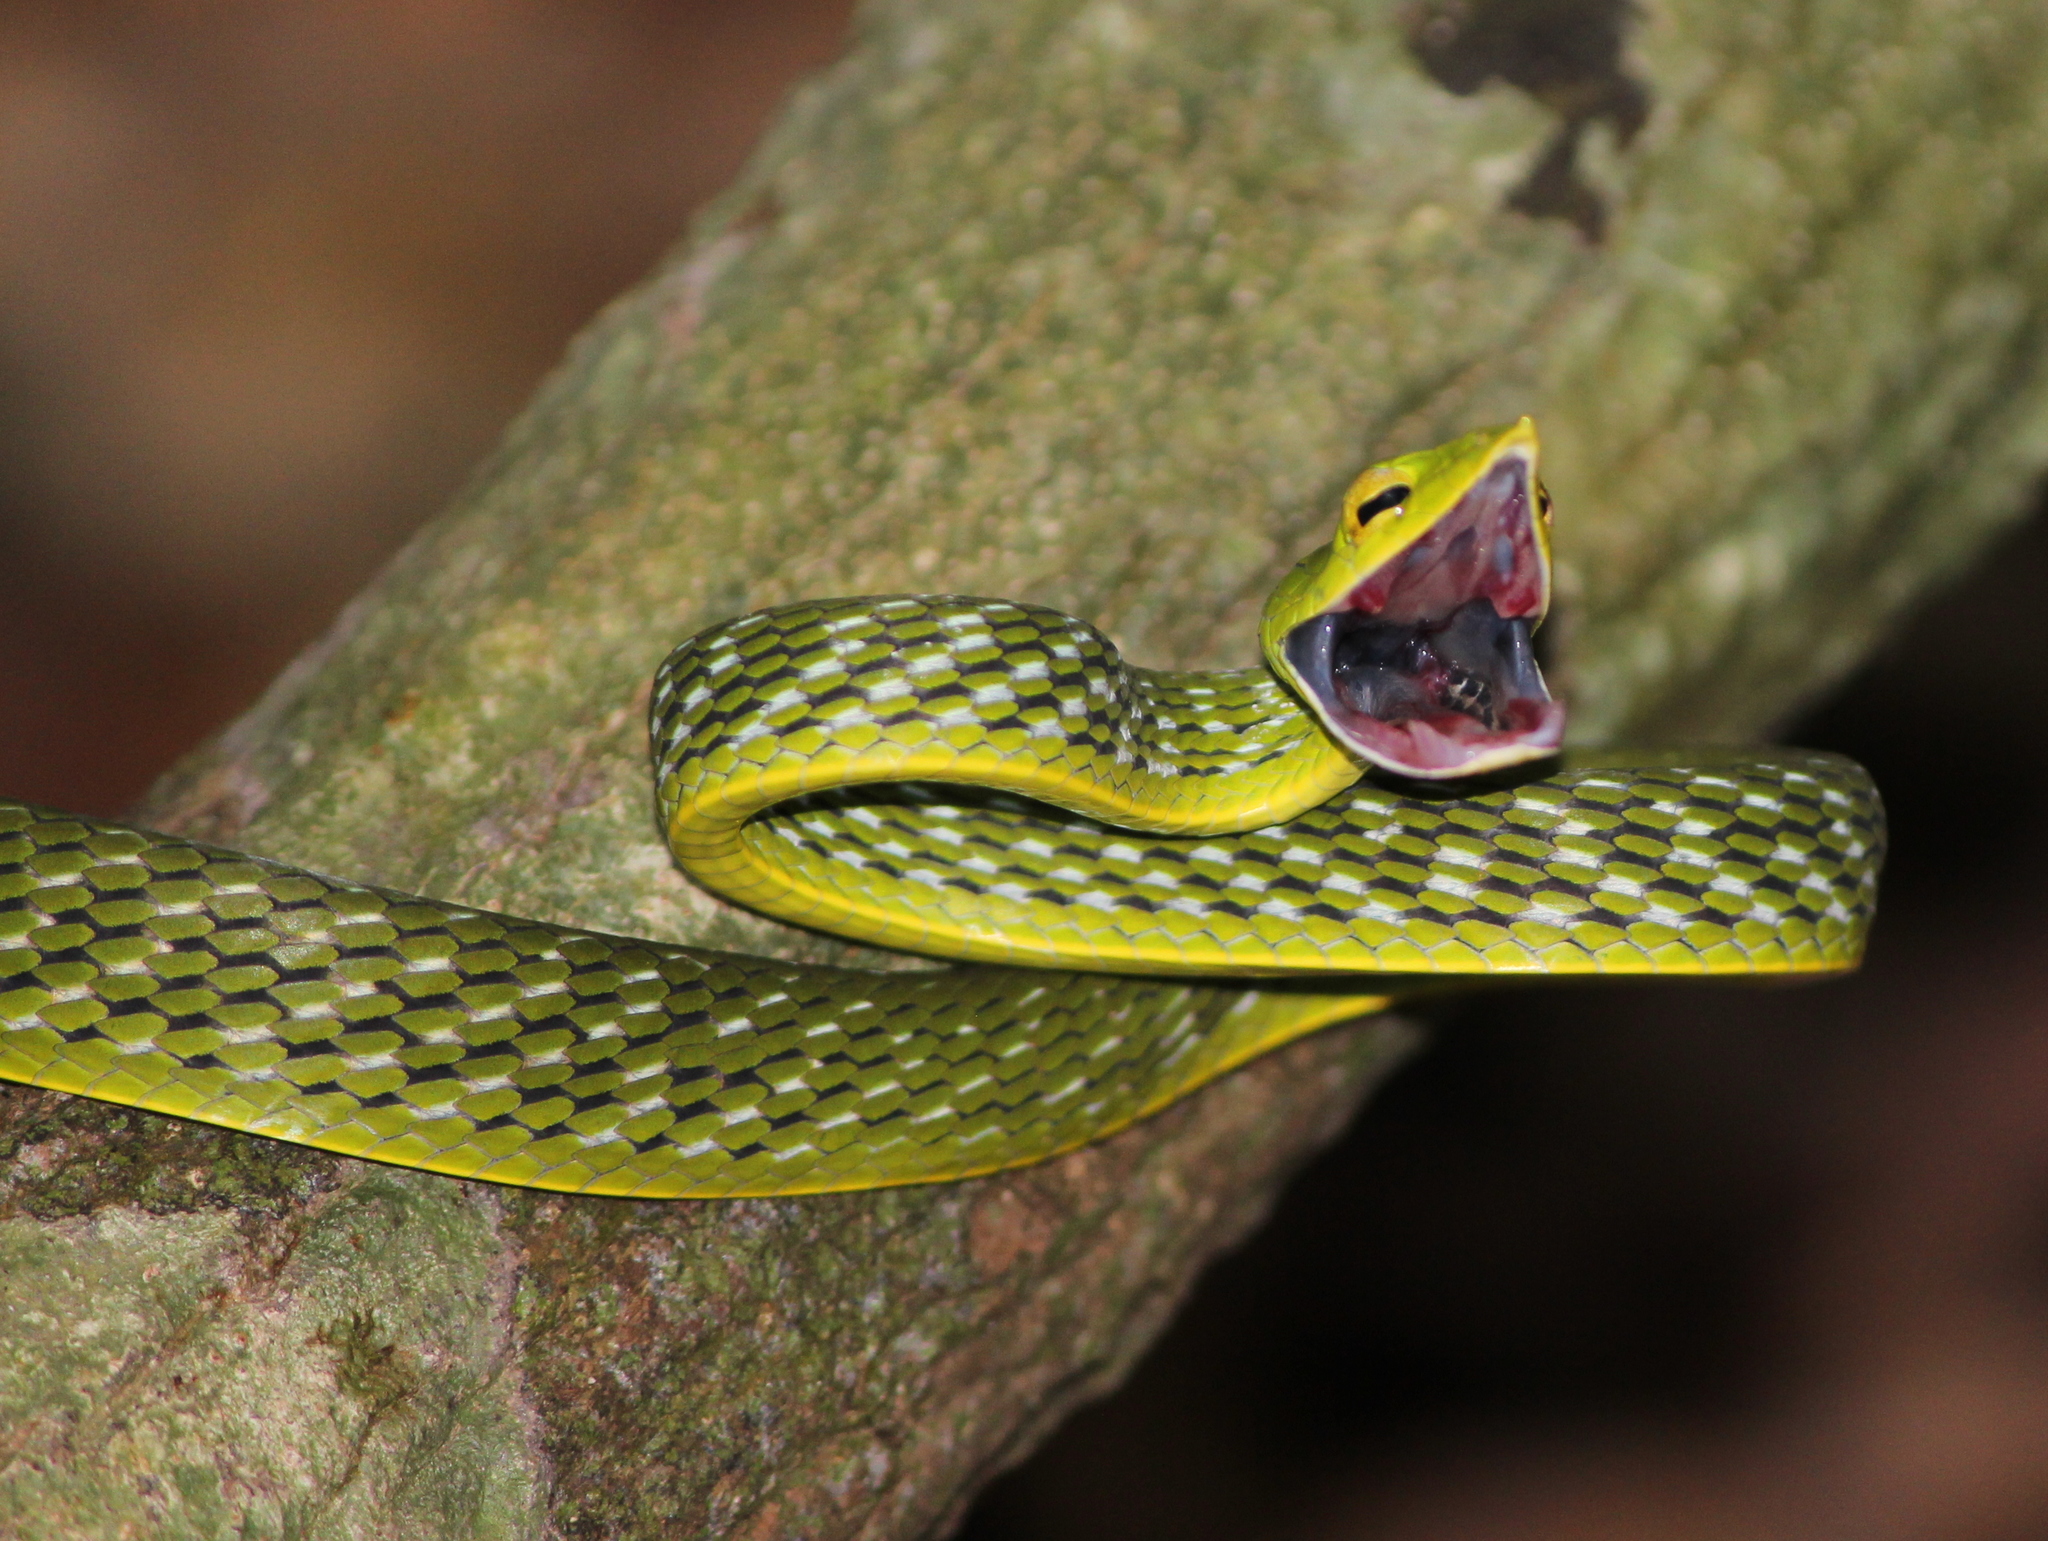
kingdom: Animalia
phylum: Chordata
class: Squamata
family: Colubridae
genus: Ahaetulla
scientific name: Ahaetulla malabarica
